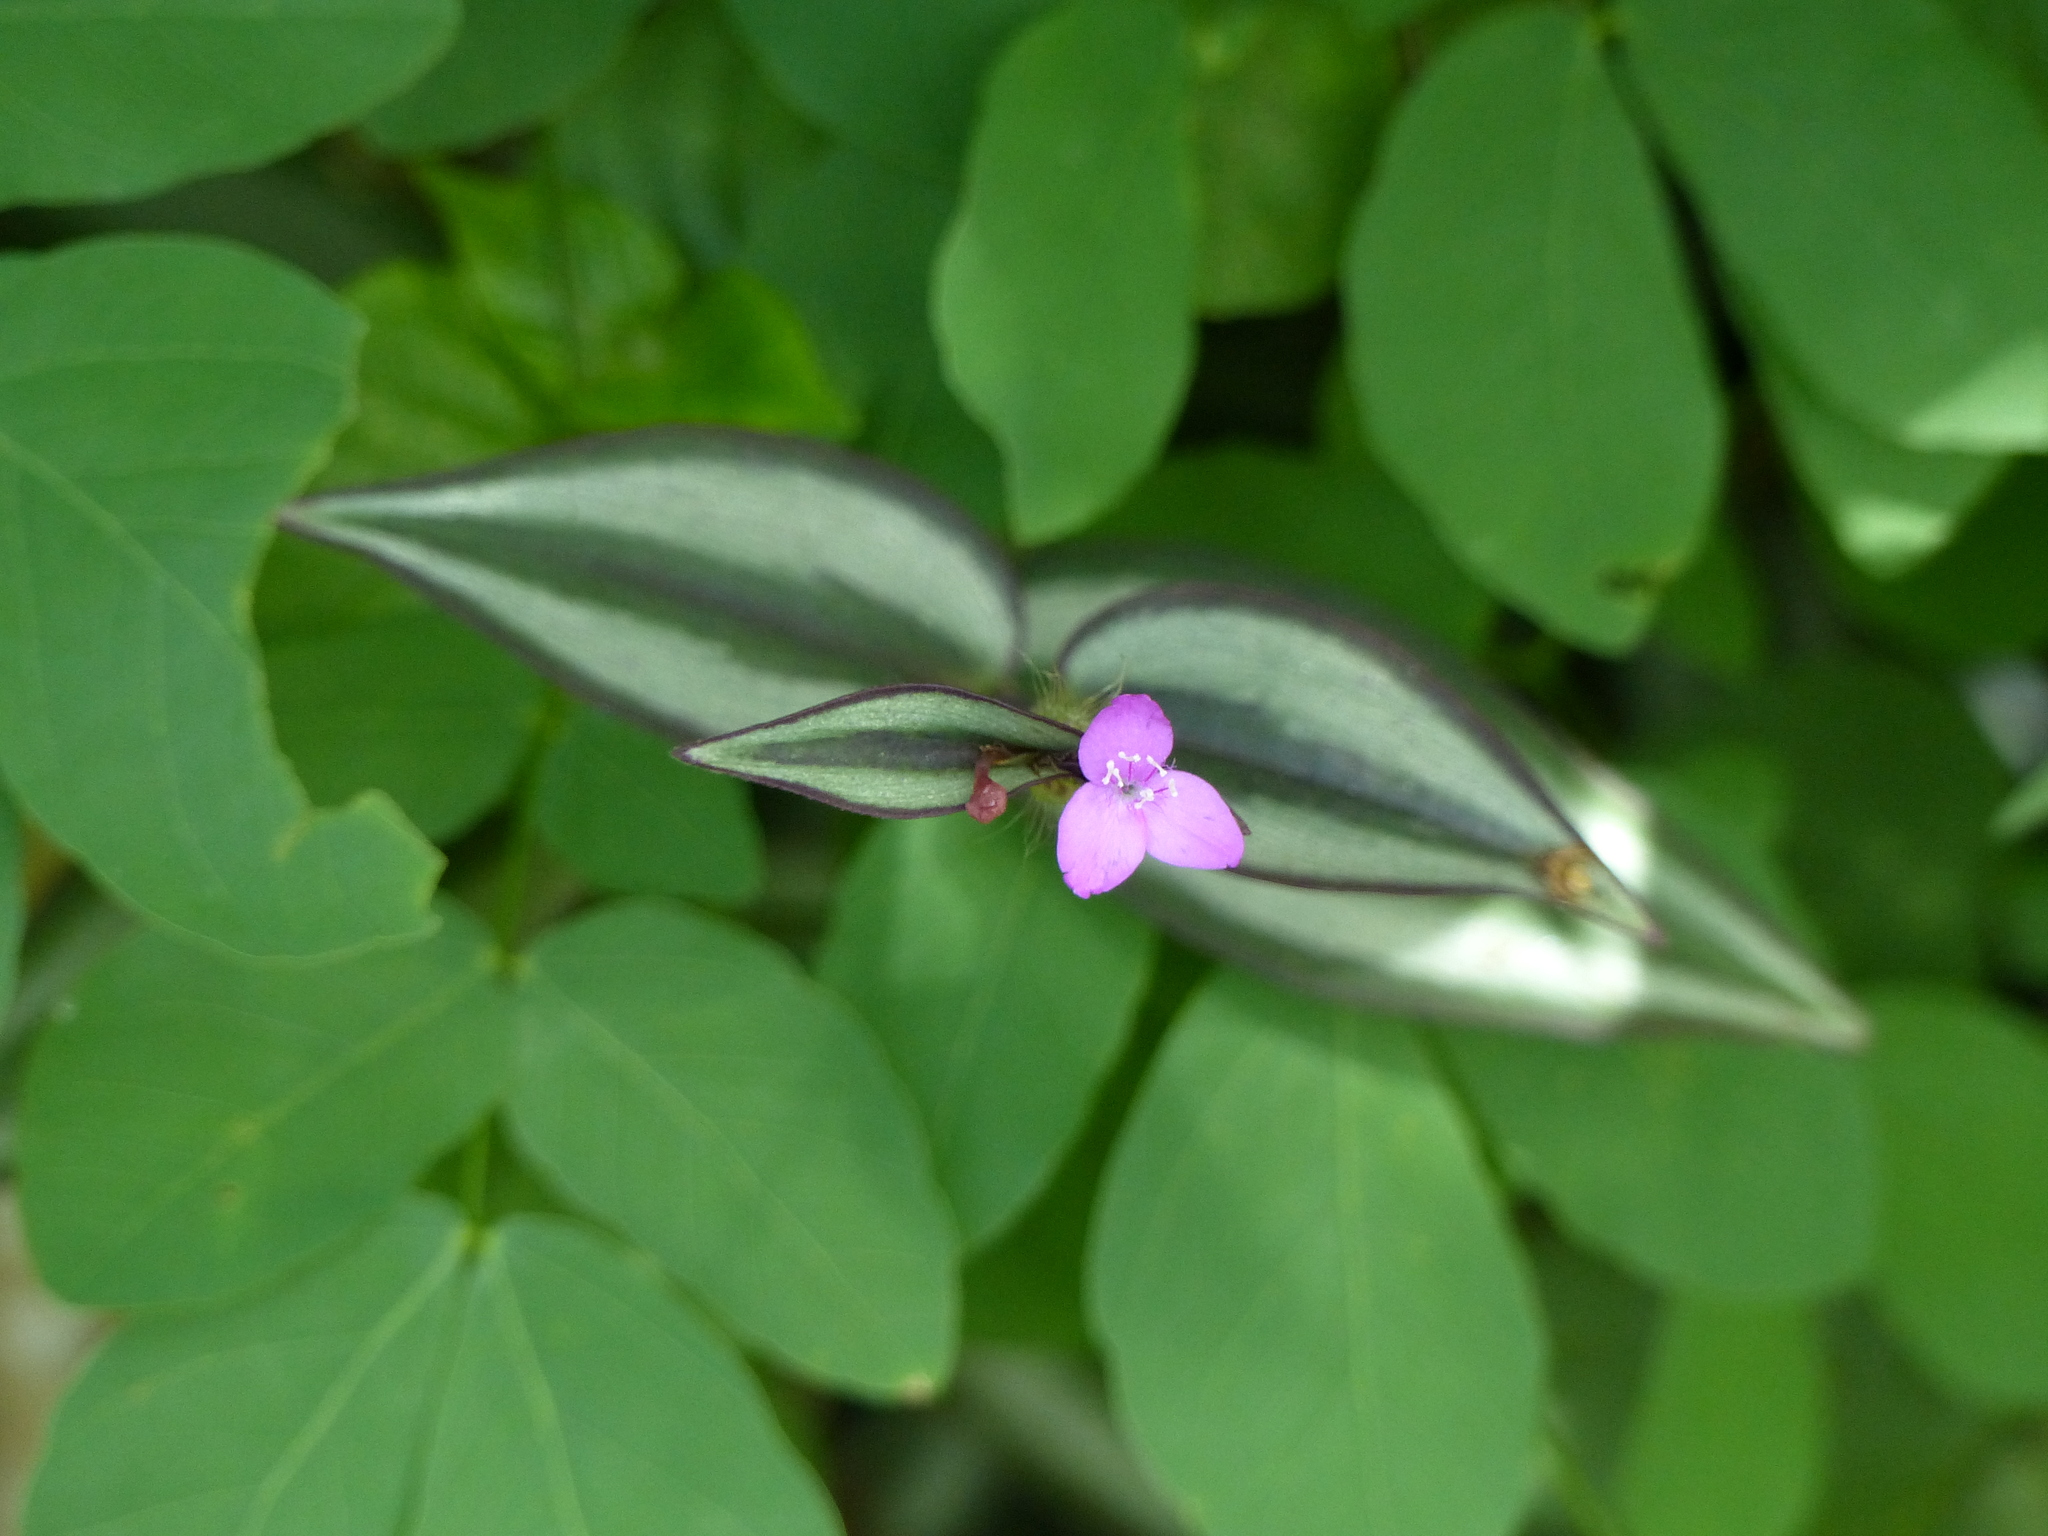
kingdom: Plantae
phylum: Tracheophyta
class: Liliopsida
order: Commelinales
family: Commelinaceae
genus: Tradescantia
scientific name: Tradescantia zebrina
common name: Inchplant
